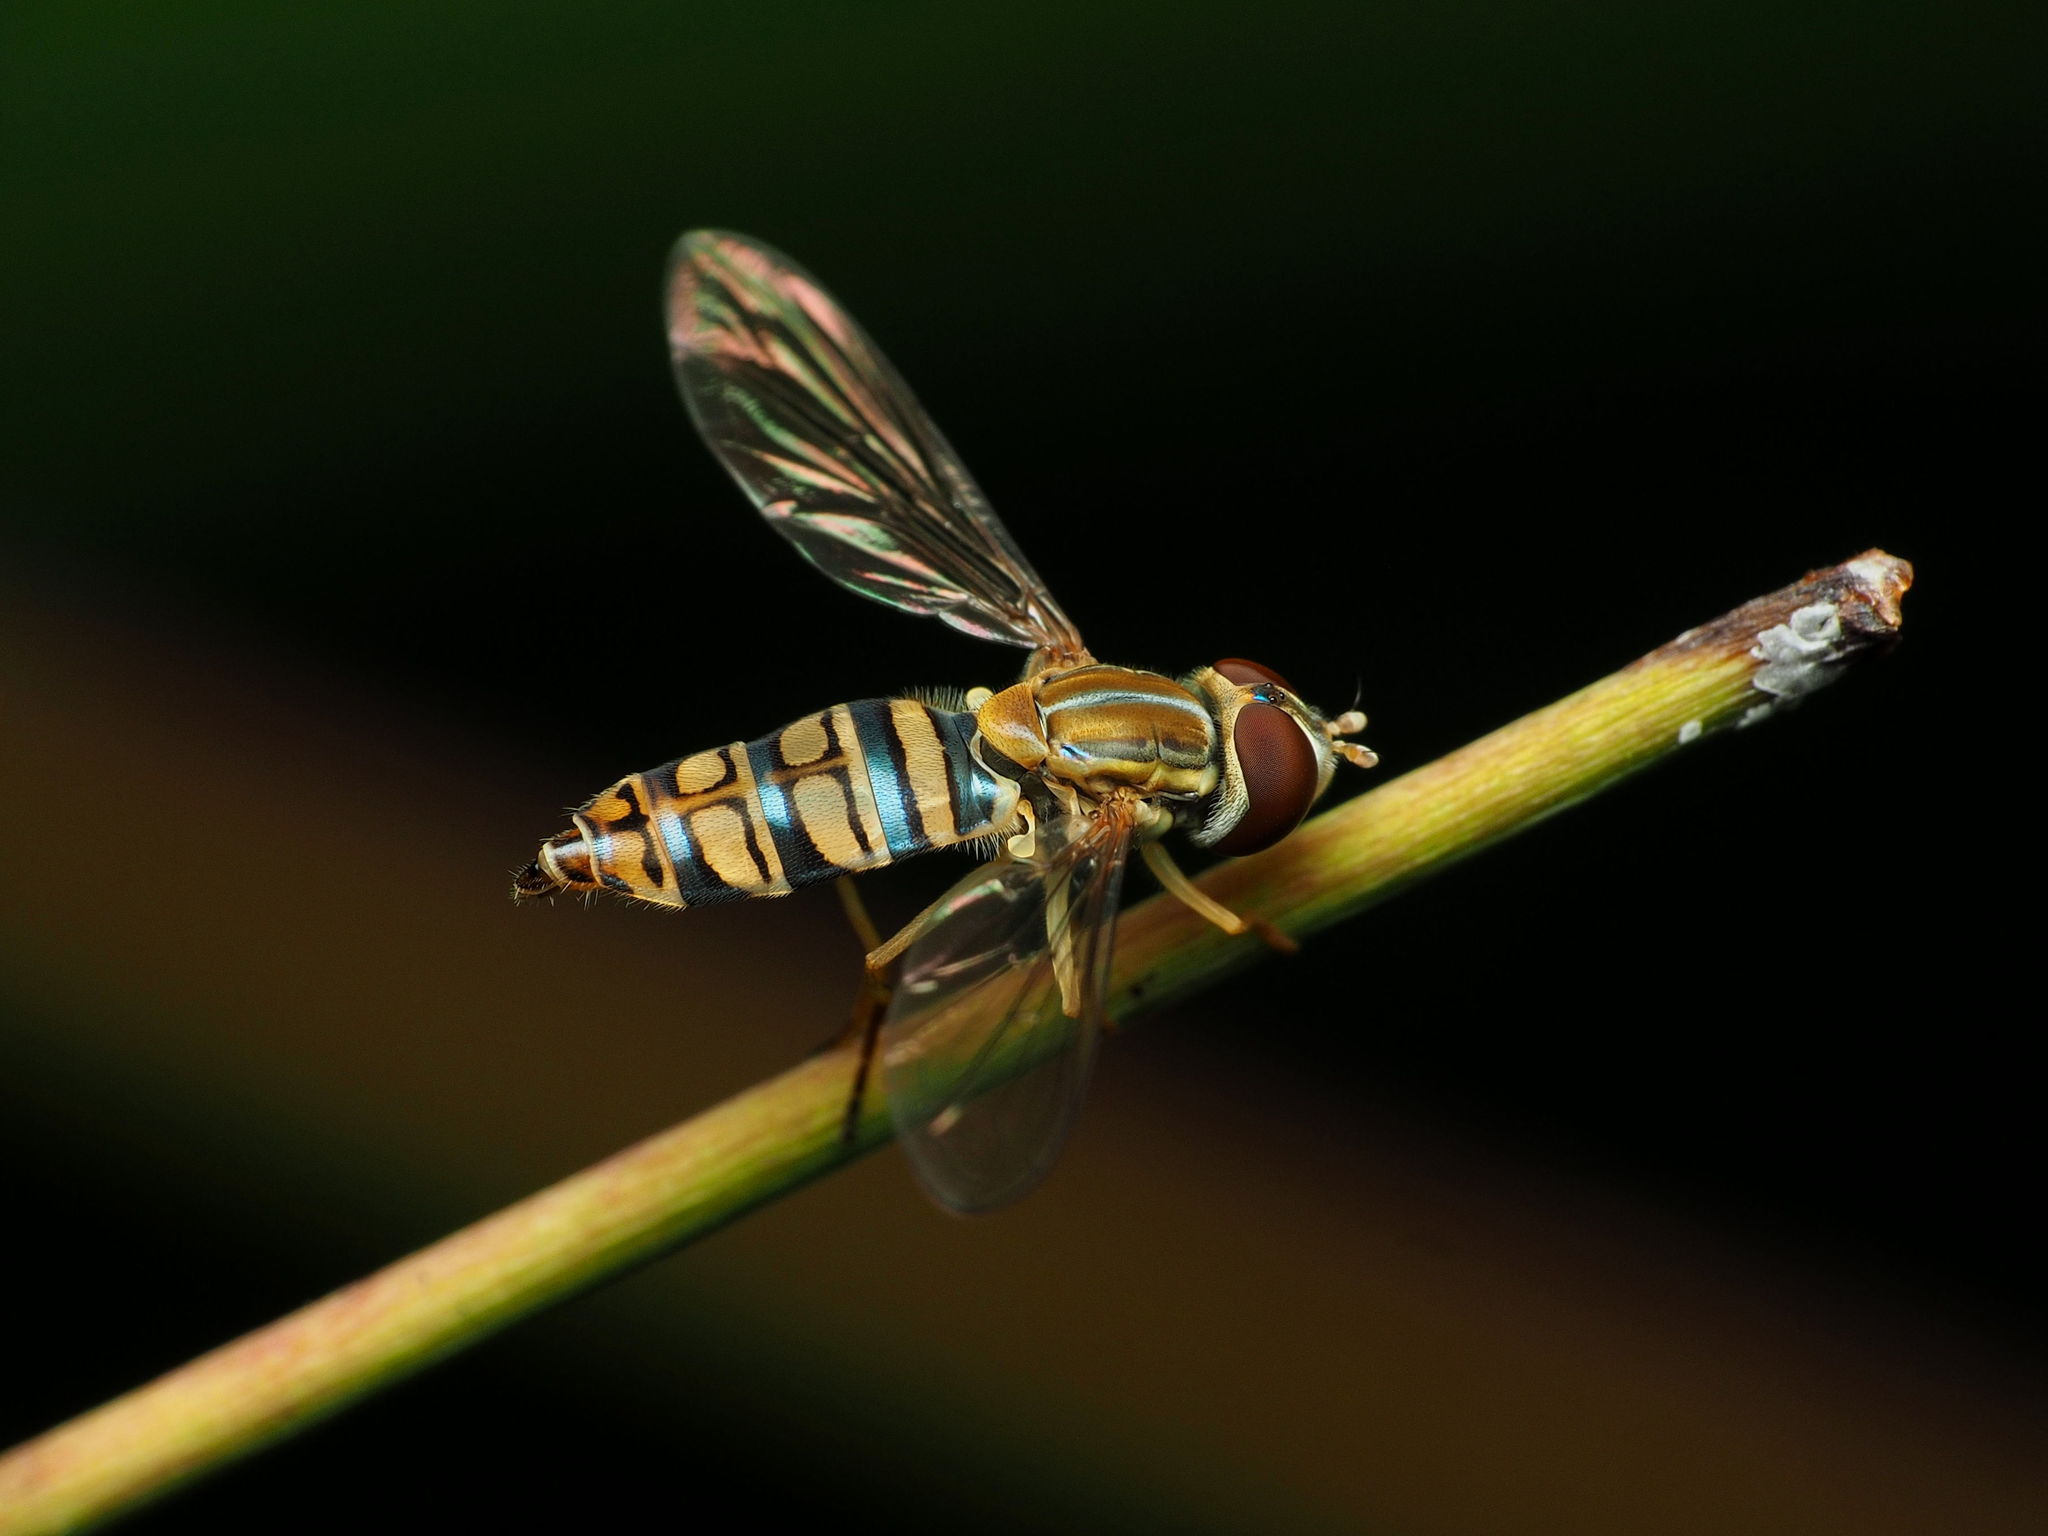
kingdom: Animalia
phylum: Arthropoda
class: Insecta
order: Diptera
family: Syrphidae
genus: Toxomerus
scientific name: Toxomerus politus
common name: Maize calligrapher
